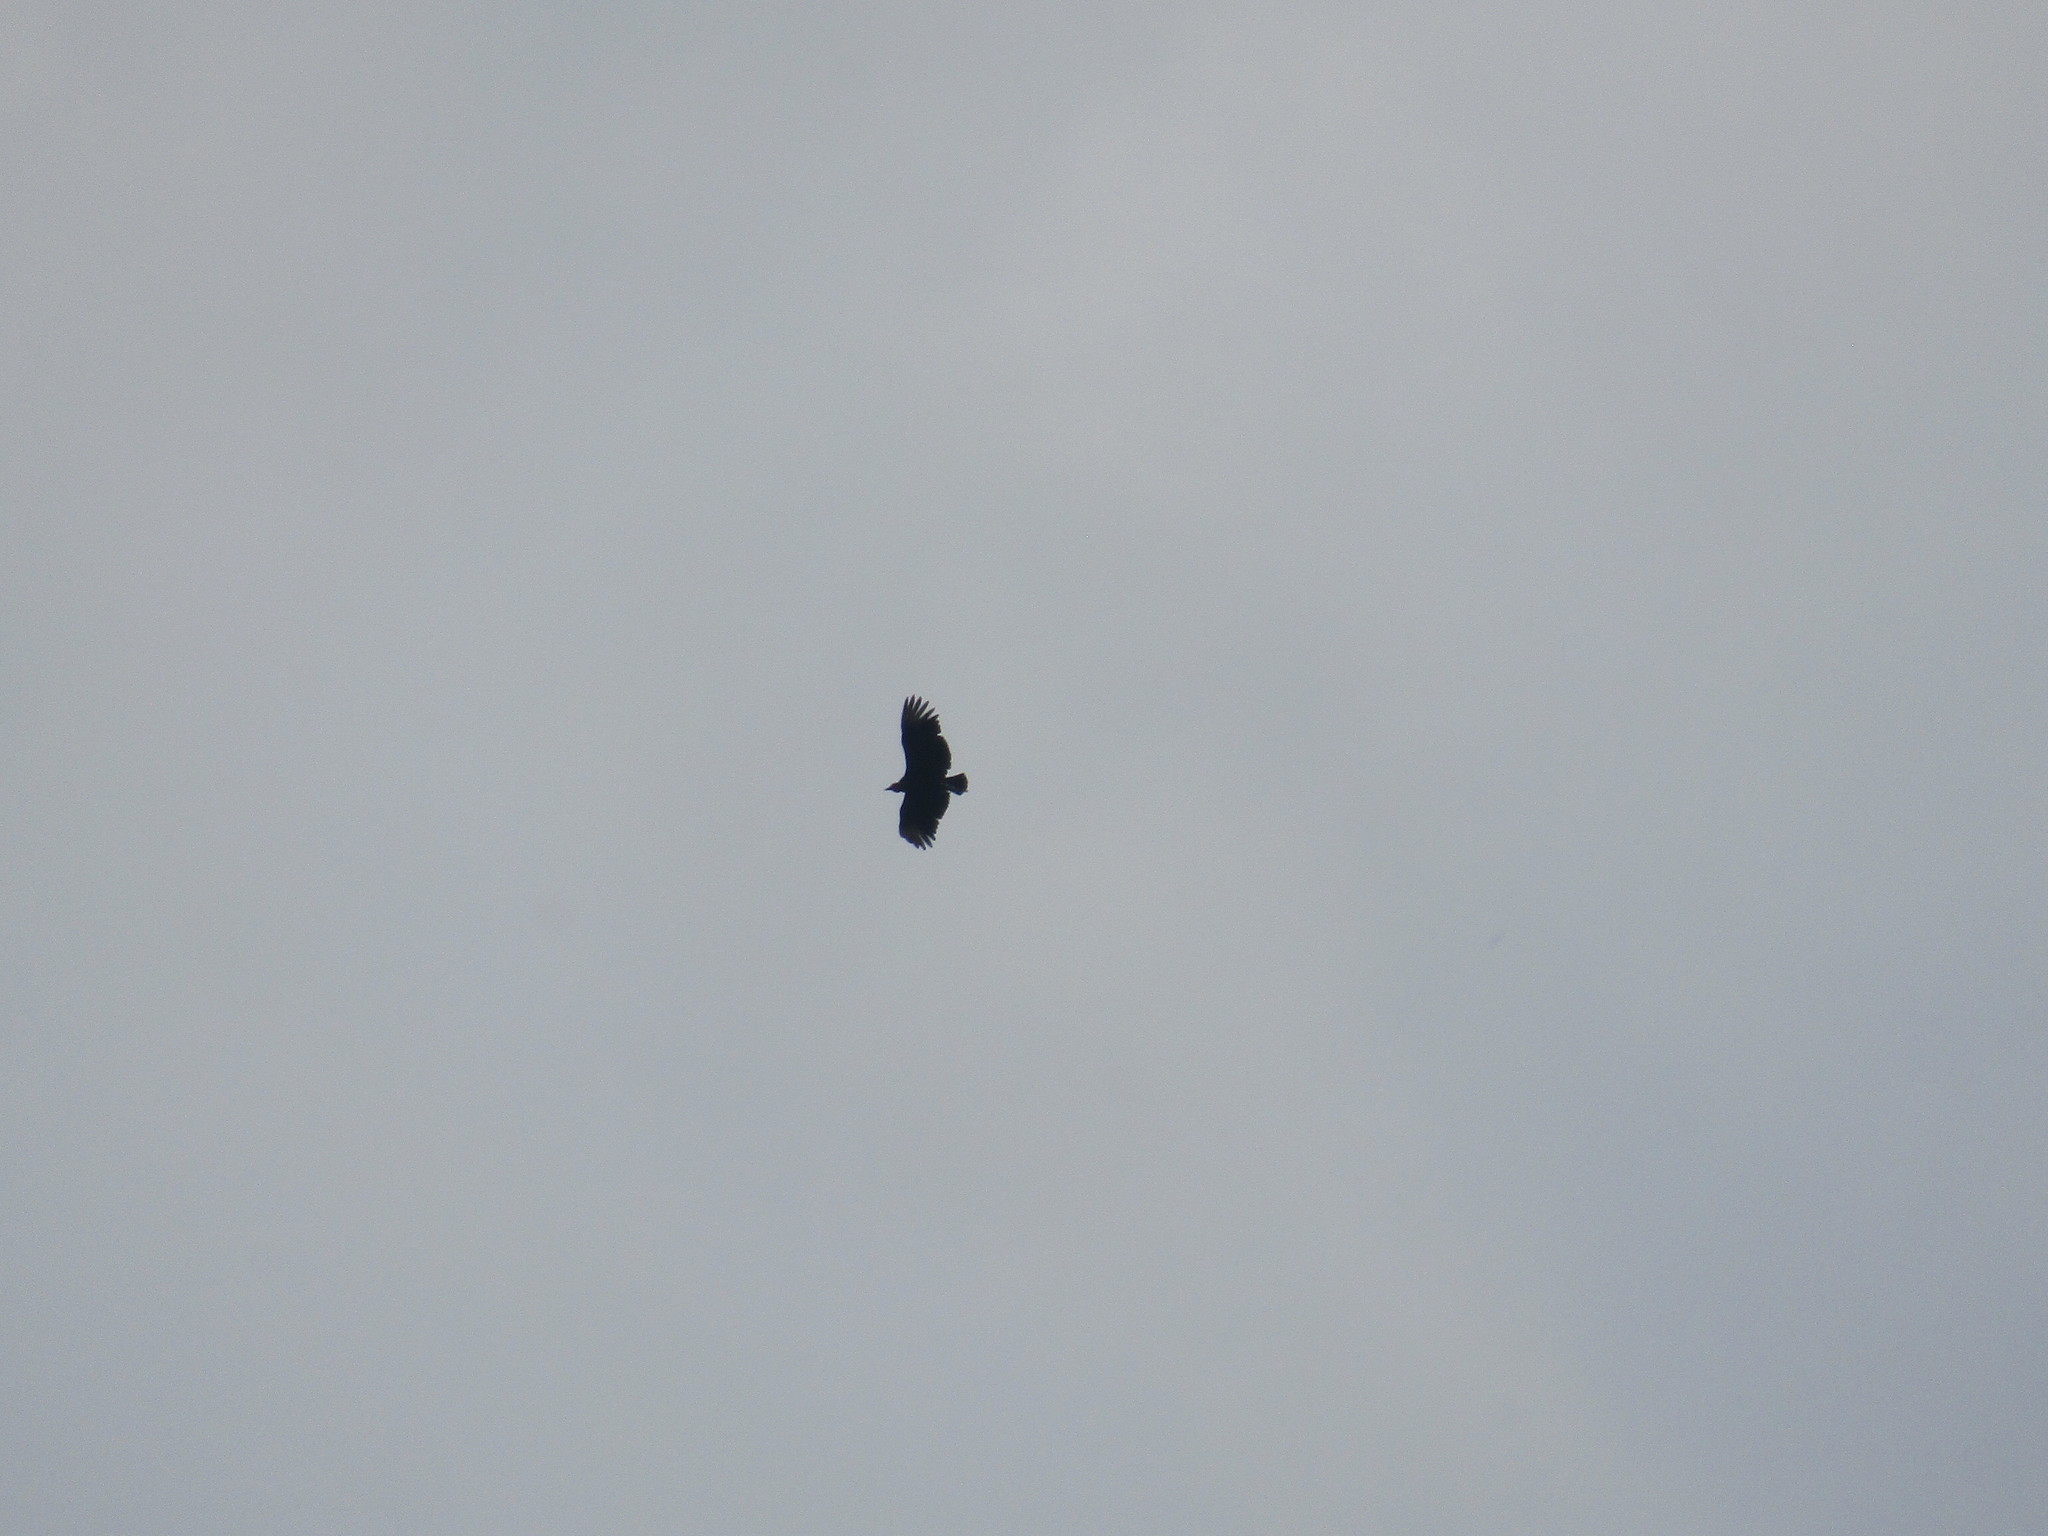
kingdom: Animalia
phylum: Chordata
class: Aves
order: Accipitriformes
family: Cathartidae
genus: Coragyps
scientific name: Coragyps atratus
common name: Black vulture
